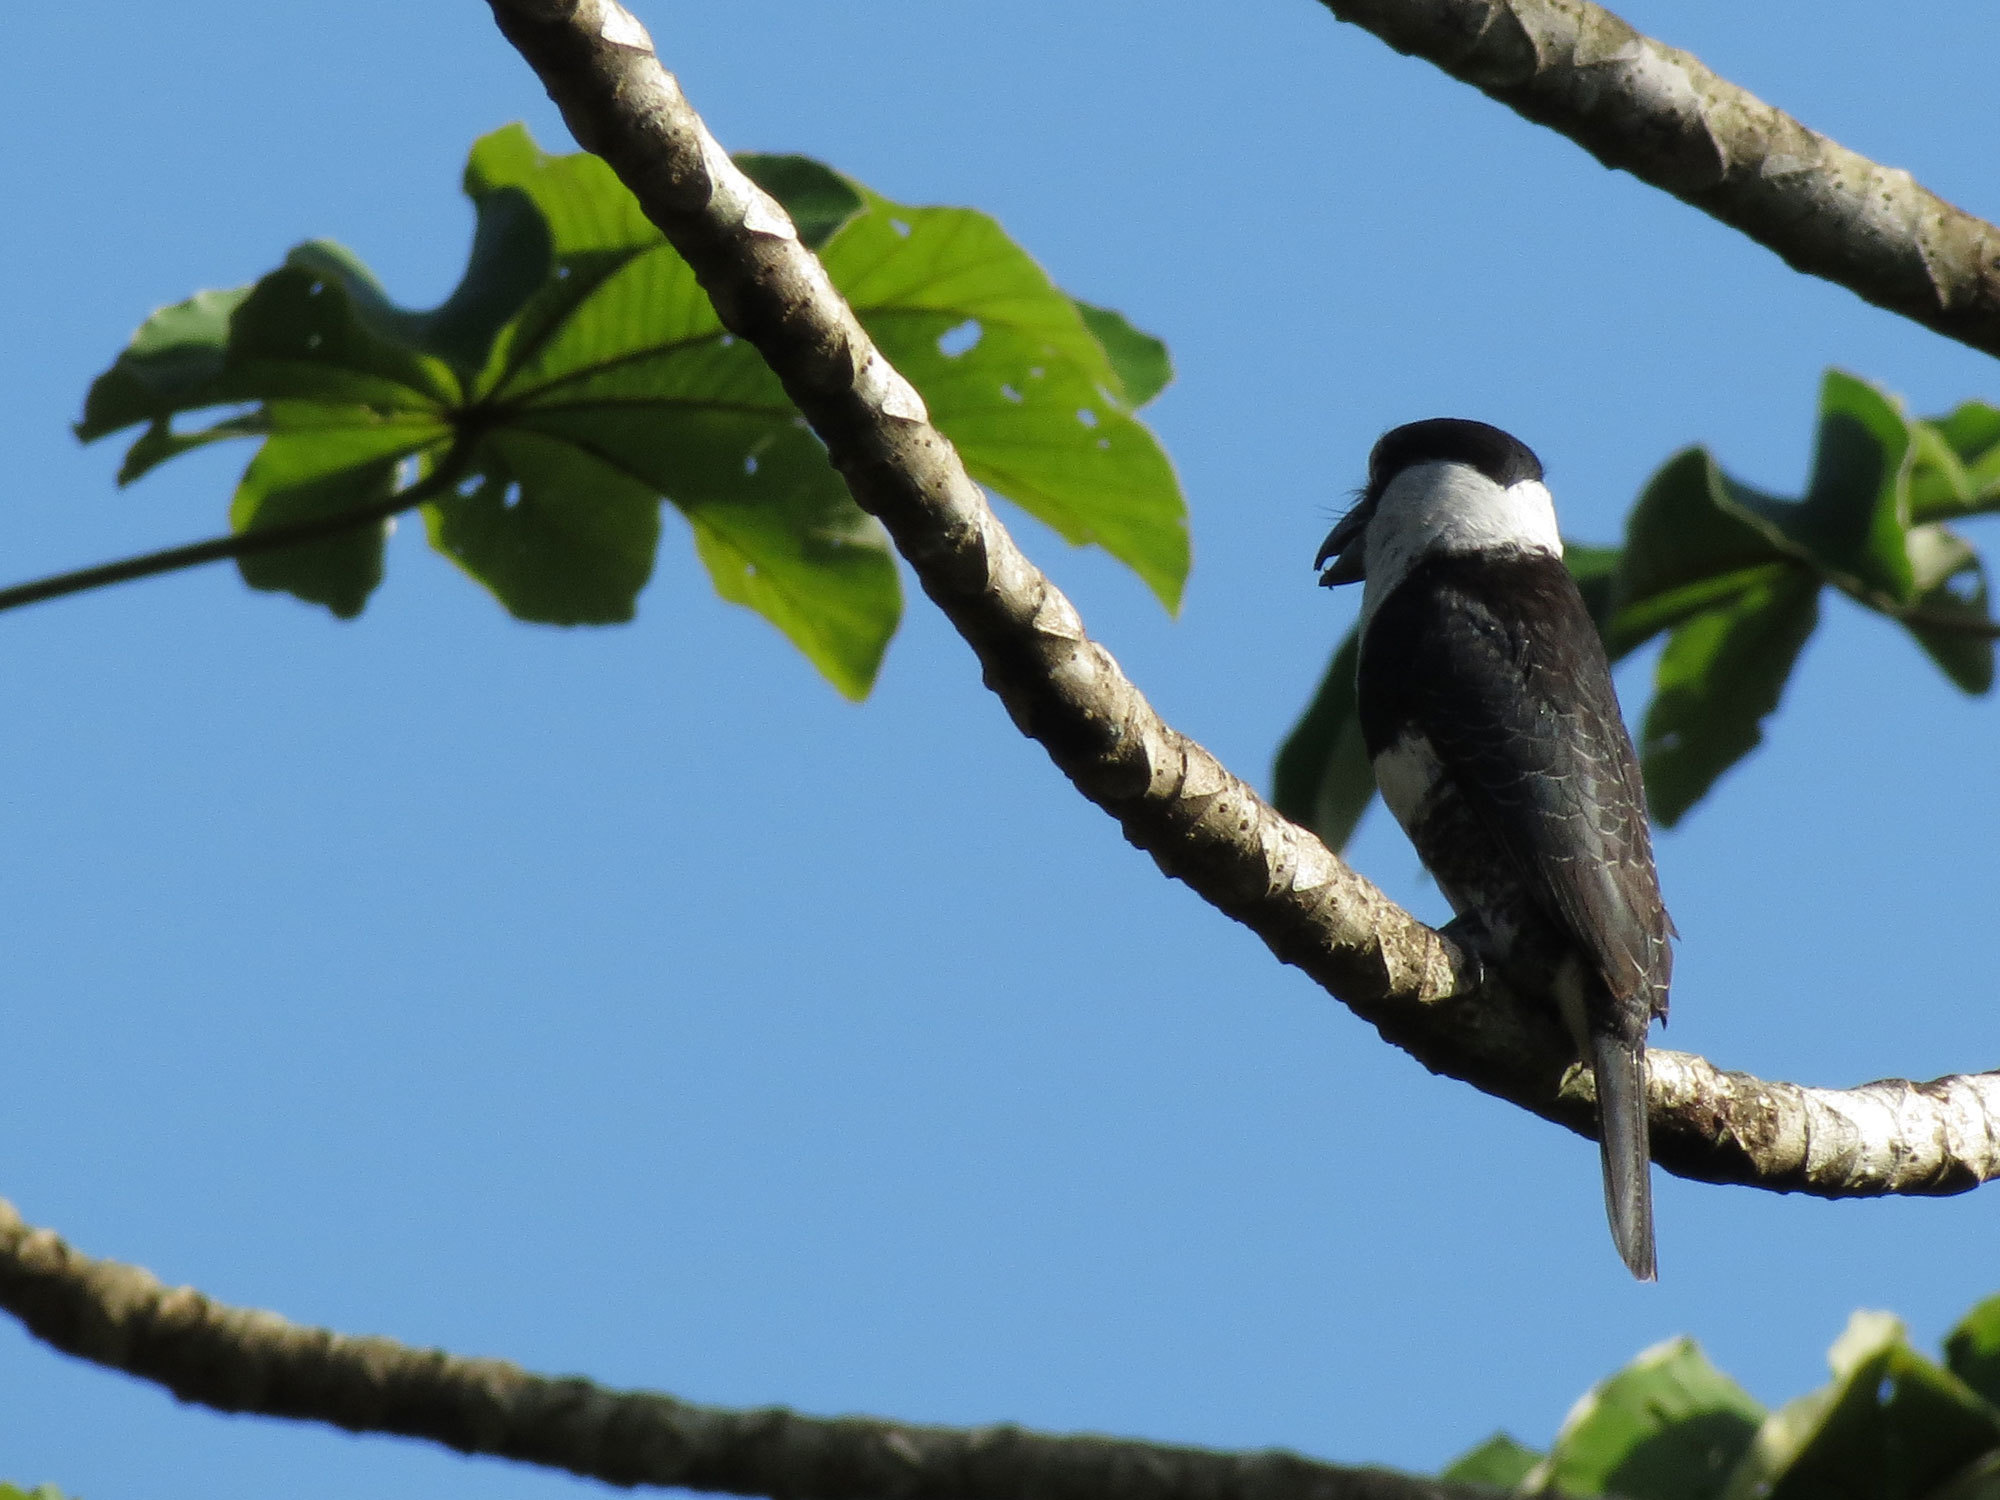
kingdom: Animalia
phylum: Chordata
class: Aves
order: Piciformes
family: Bucconidae
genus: Notharchus
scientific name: Notharchus hyperrhynchus
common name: White-necked puffbird
